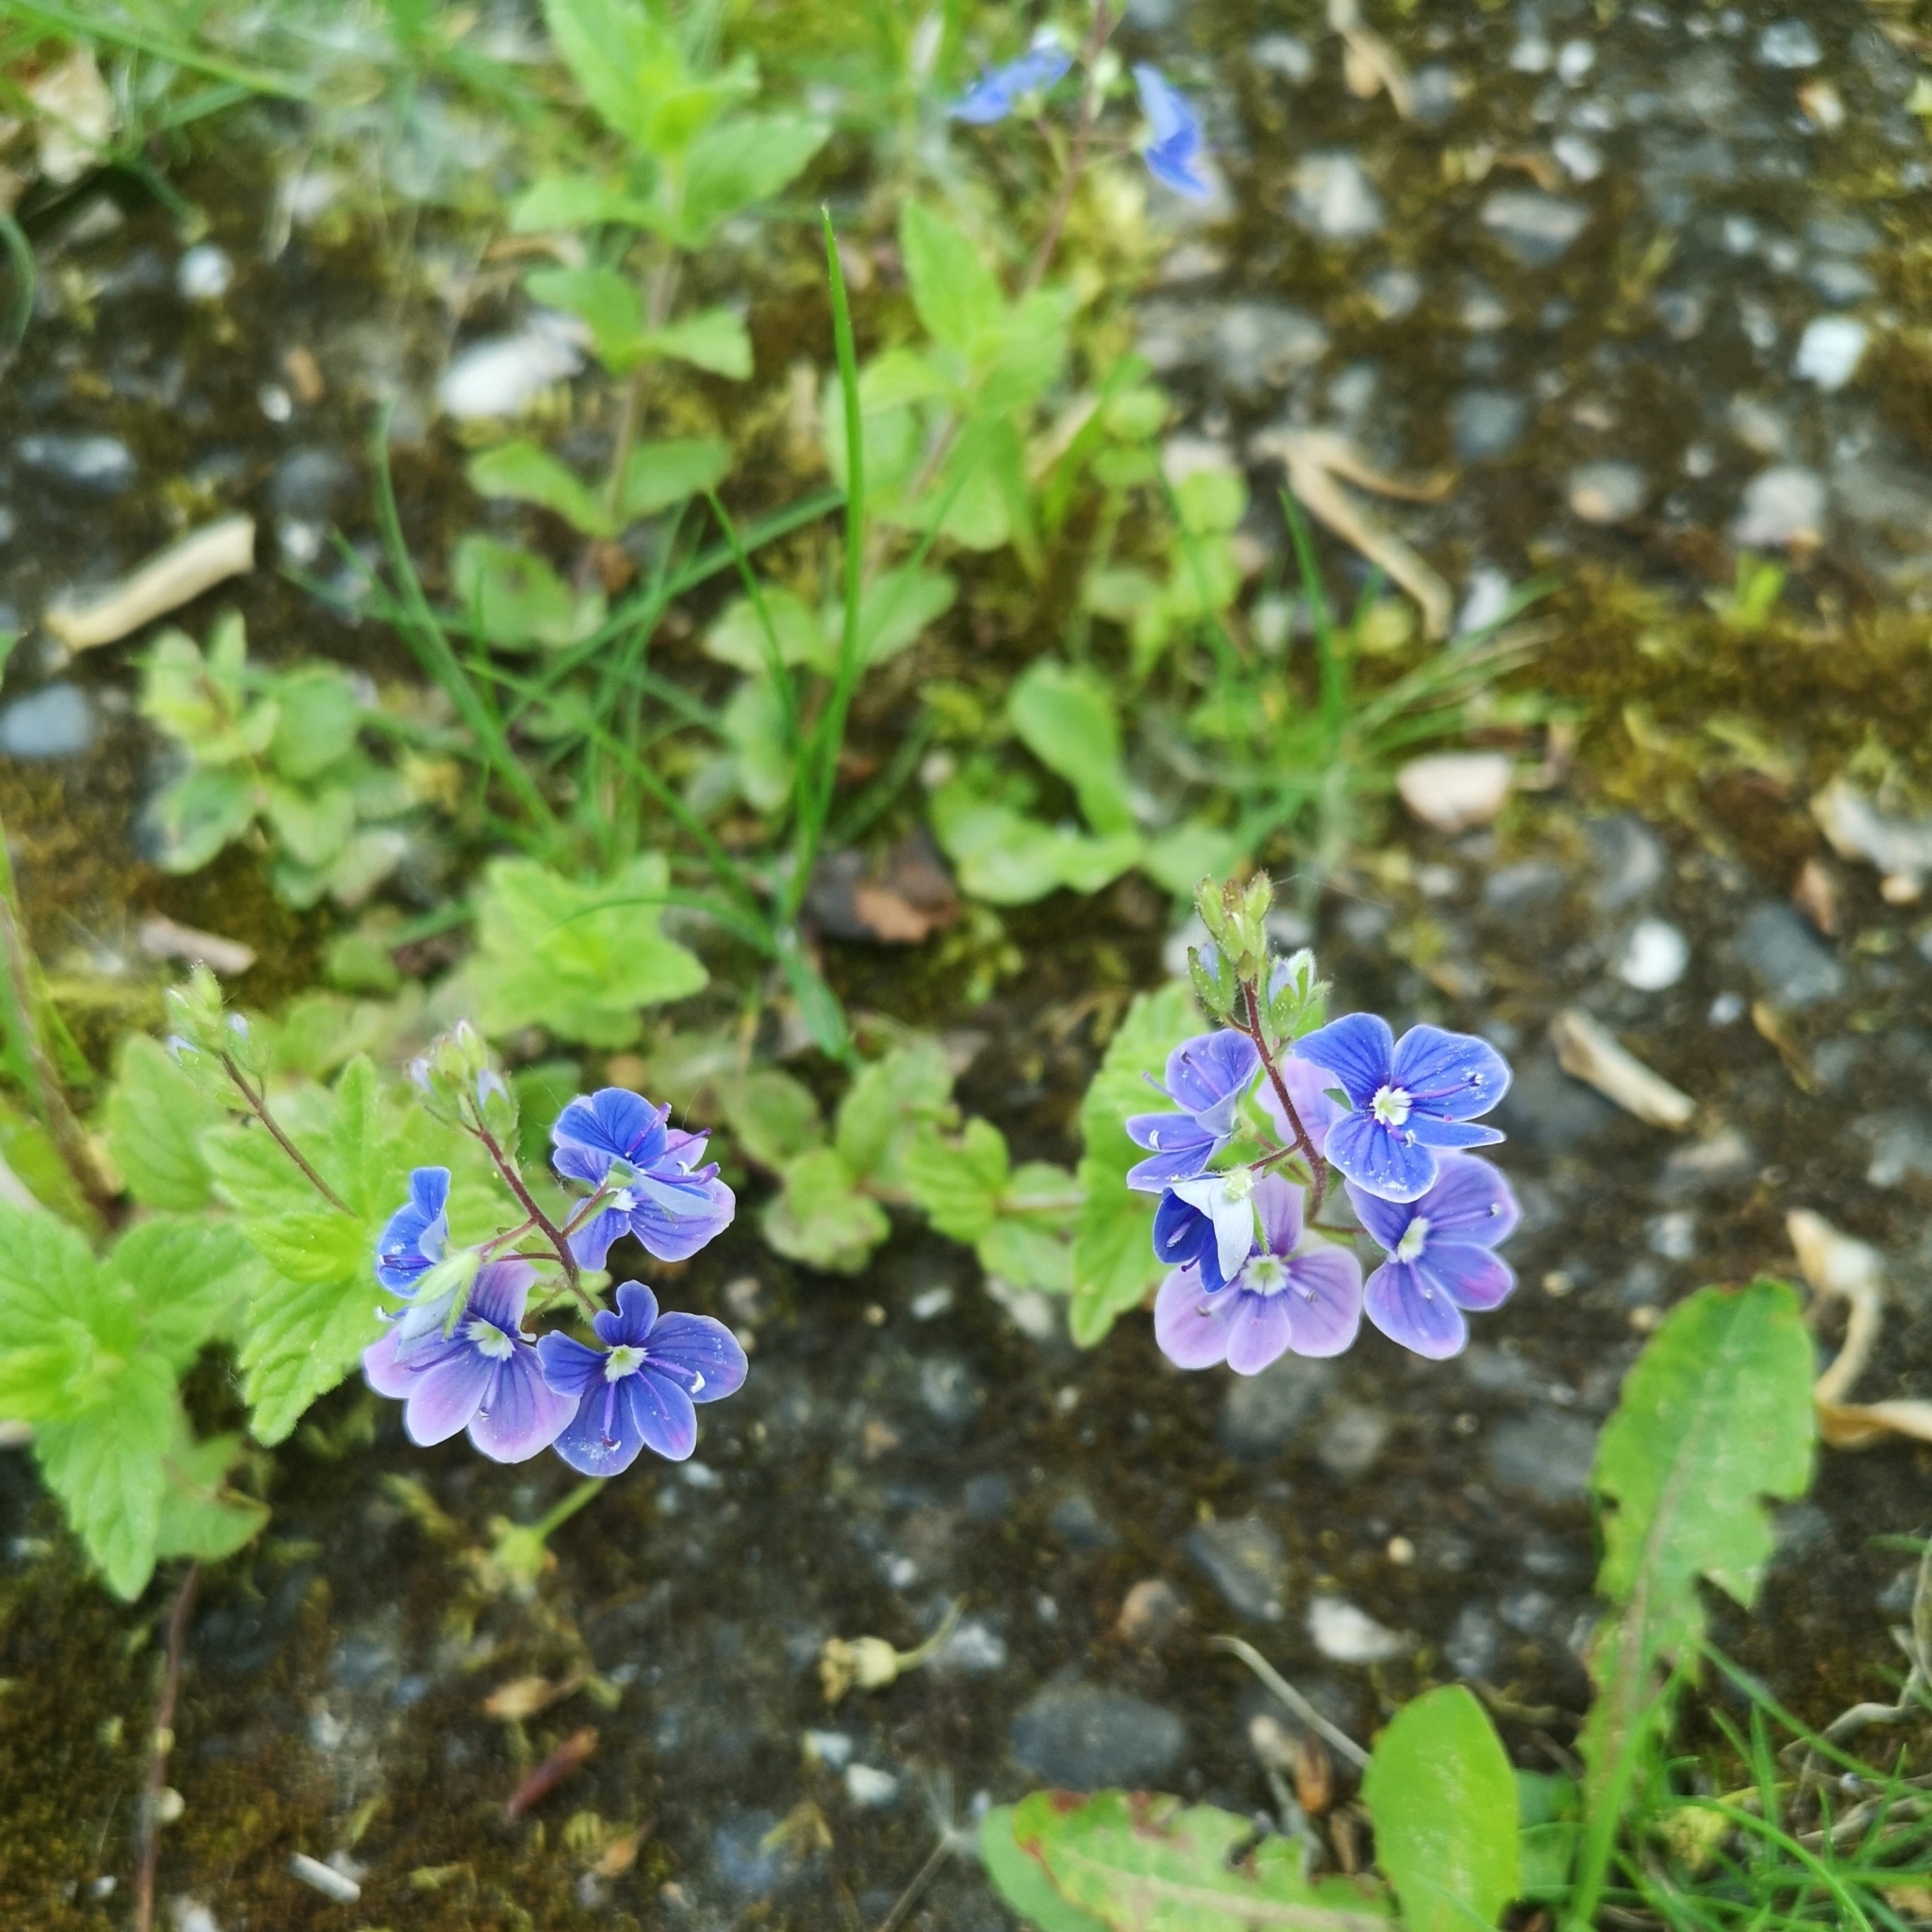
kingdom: Plantae
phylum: Tracheophyta
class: Magnoliopsida
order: Lamiales
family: Plantaginaceae
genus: Veronica
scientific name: Veronica chamaedrys
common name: Germander speedwell
